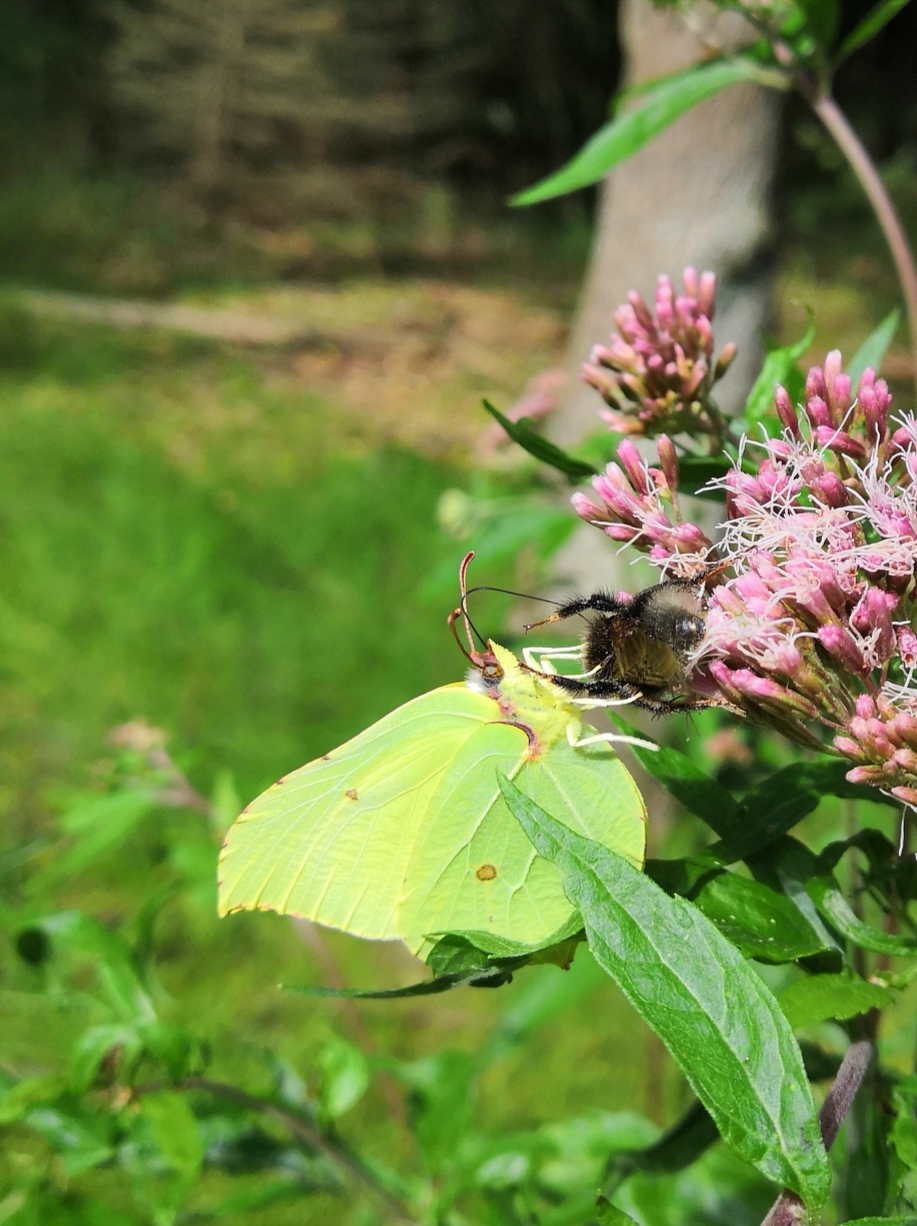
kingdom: Animalia
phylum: Arthropoda
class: Insecta
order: Lepidoptera
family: Pieridae
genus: Gonepteryx
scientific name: Gonepteryx rhamni
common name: Brimstone
